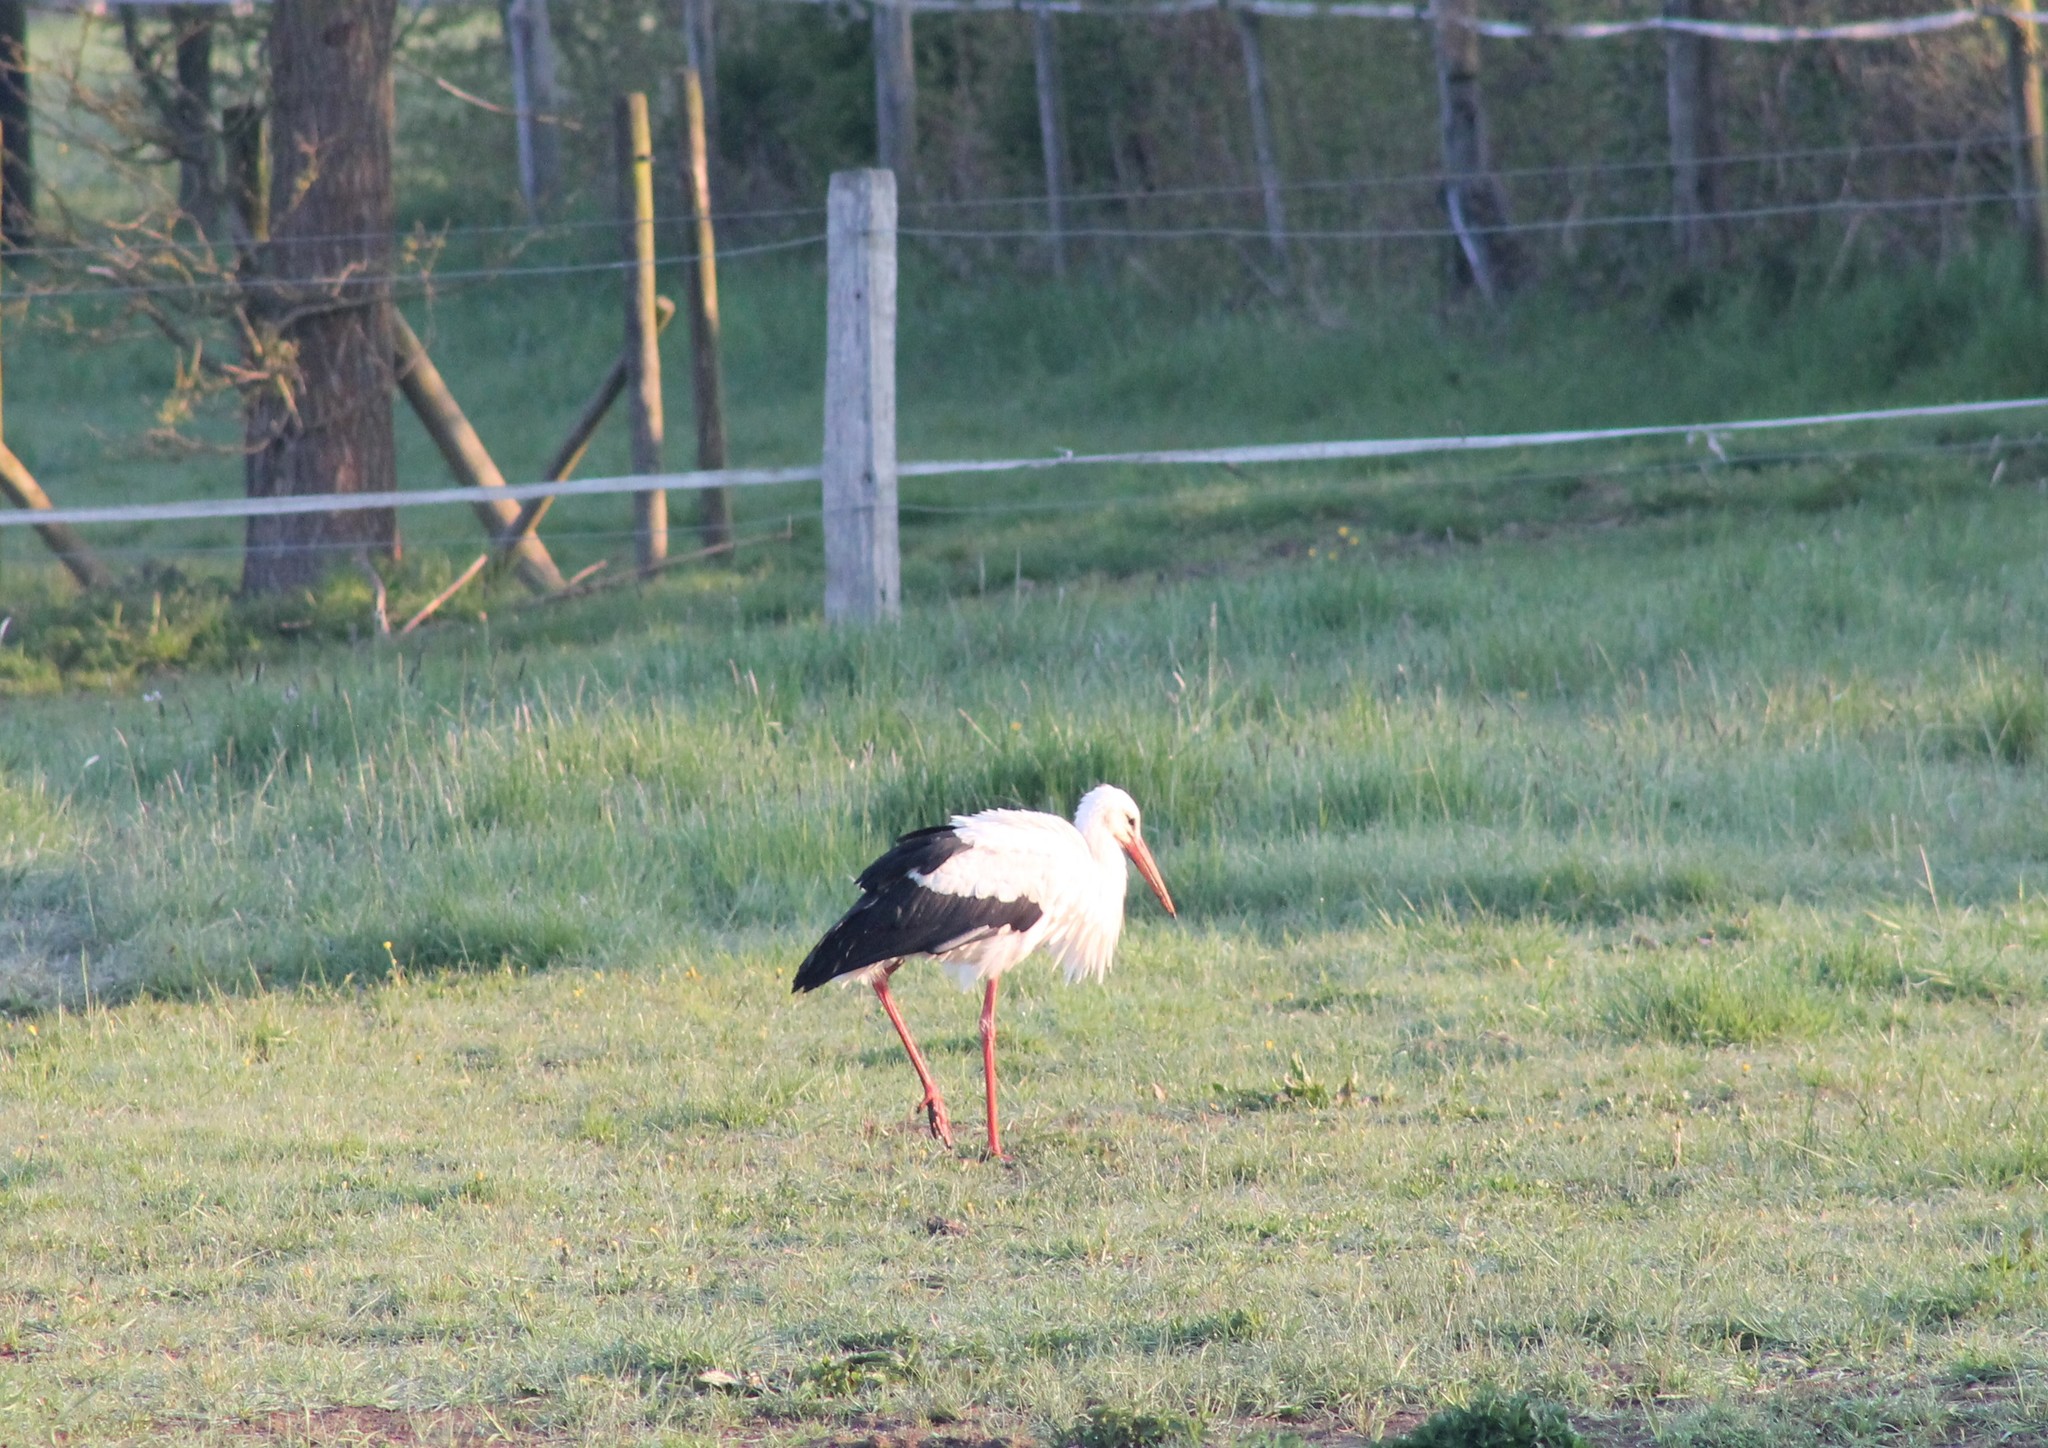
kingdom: Animalia
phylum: Chordata
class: Aves
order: Ciconiiformes
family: Ciconiidae
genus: Ciconia
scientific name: Ciconia ciconia
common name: White stork
